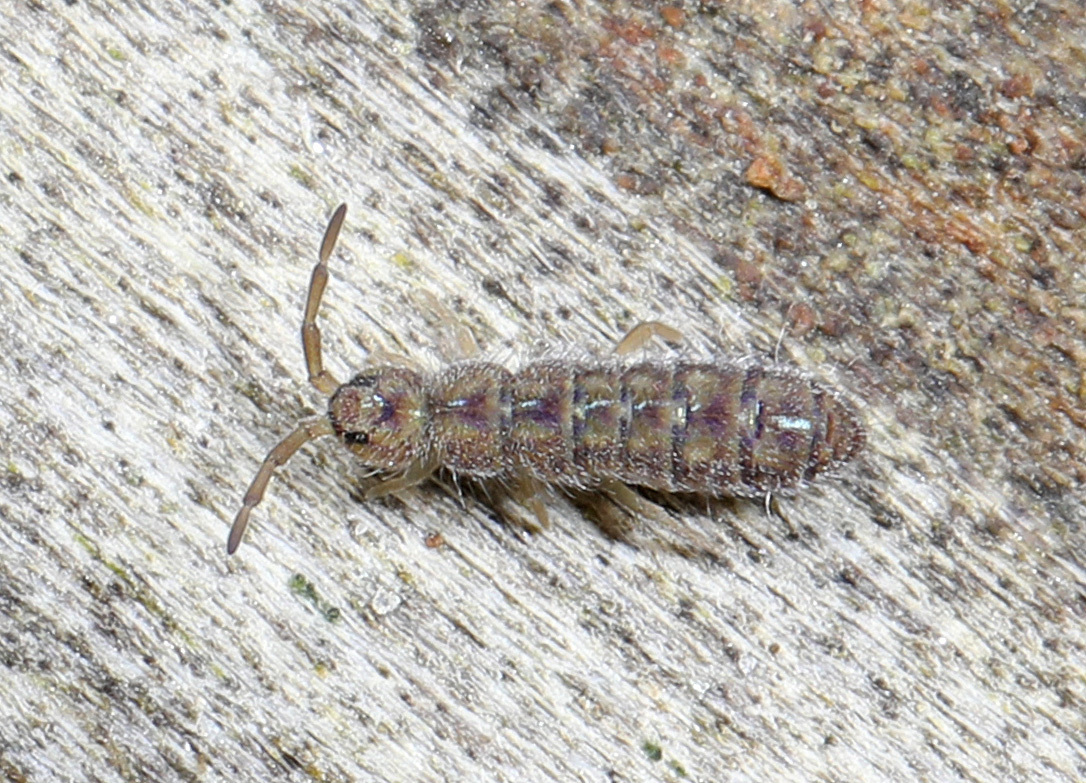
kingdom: Animalia
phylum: Arthropoda
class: Collembola
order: Entomobryomorpha
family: Isotomidae
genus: Isotoma
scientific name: Isotoma delta
